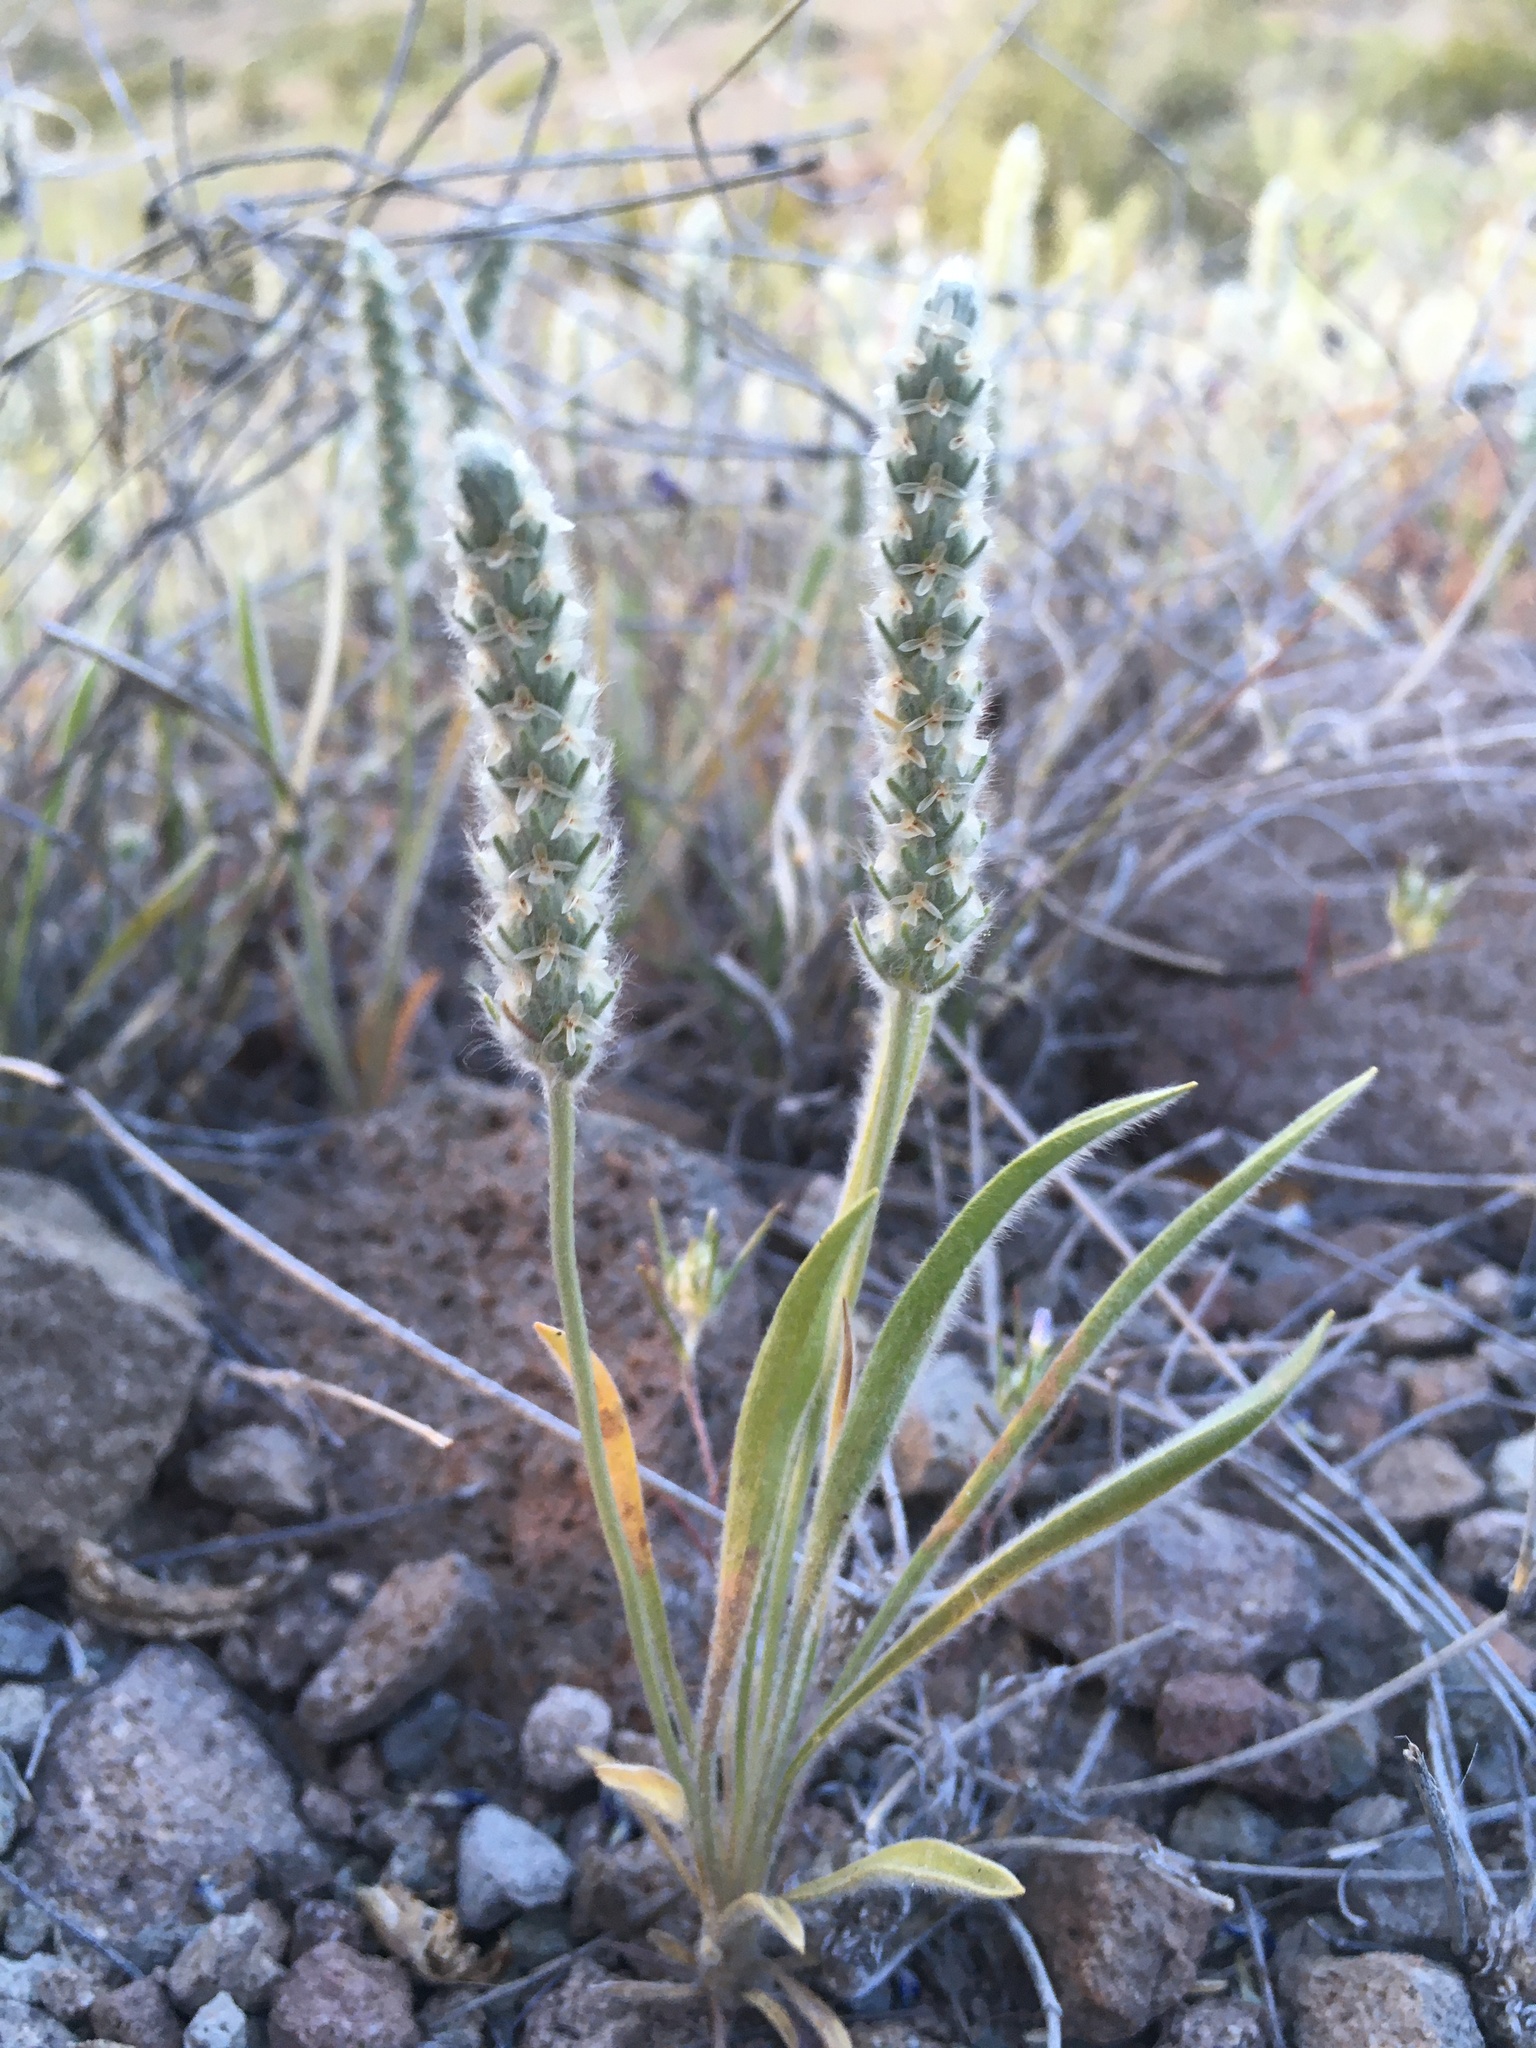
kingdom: Plantae
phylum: Tracheophyta
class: Magnoliopsida
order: Lamiales
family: Plantaginaceae
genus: Plantago
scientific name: Plantago patagonica
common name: Patagonia indian-wheat
